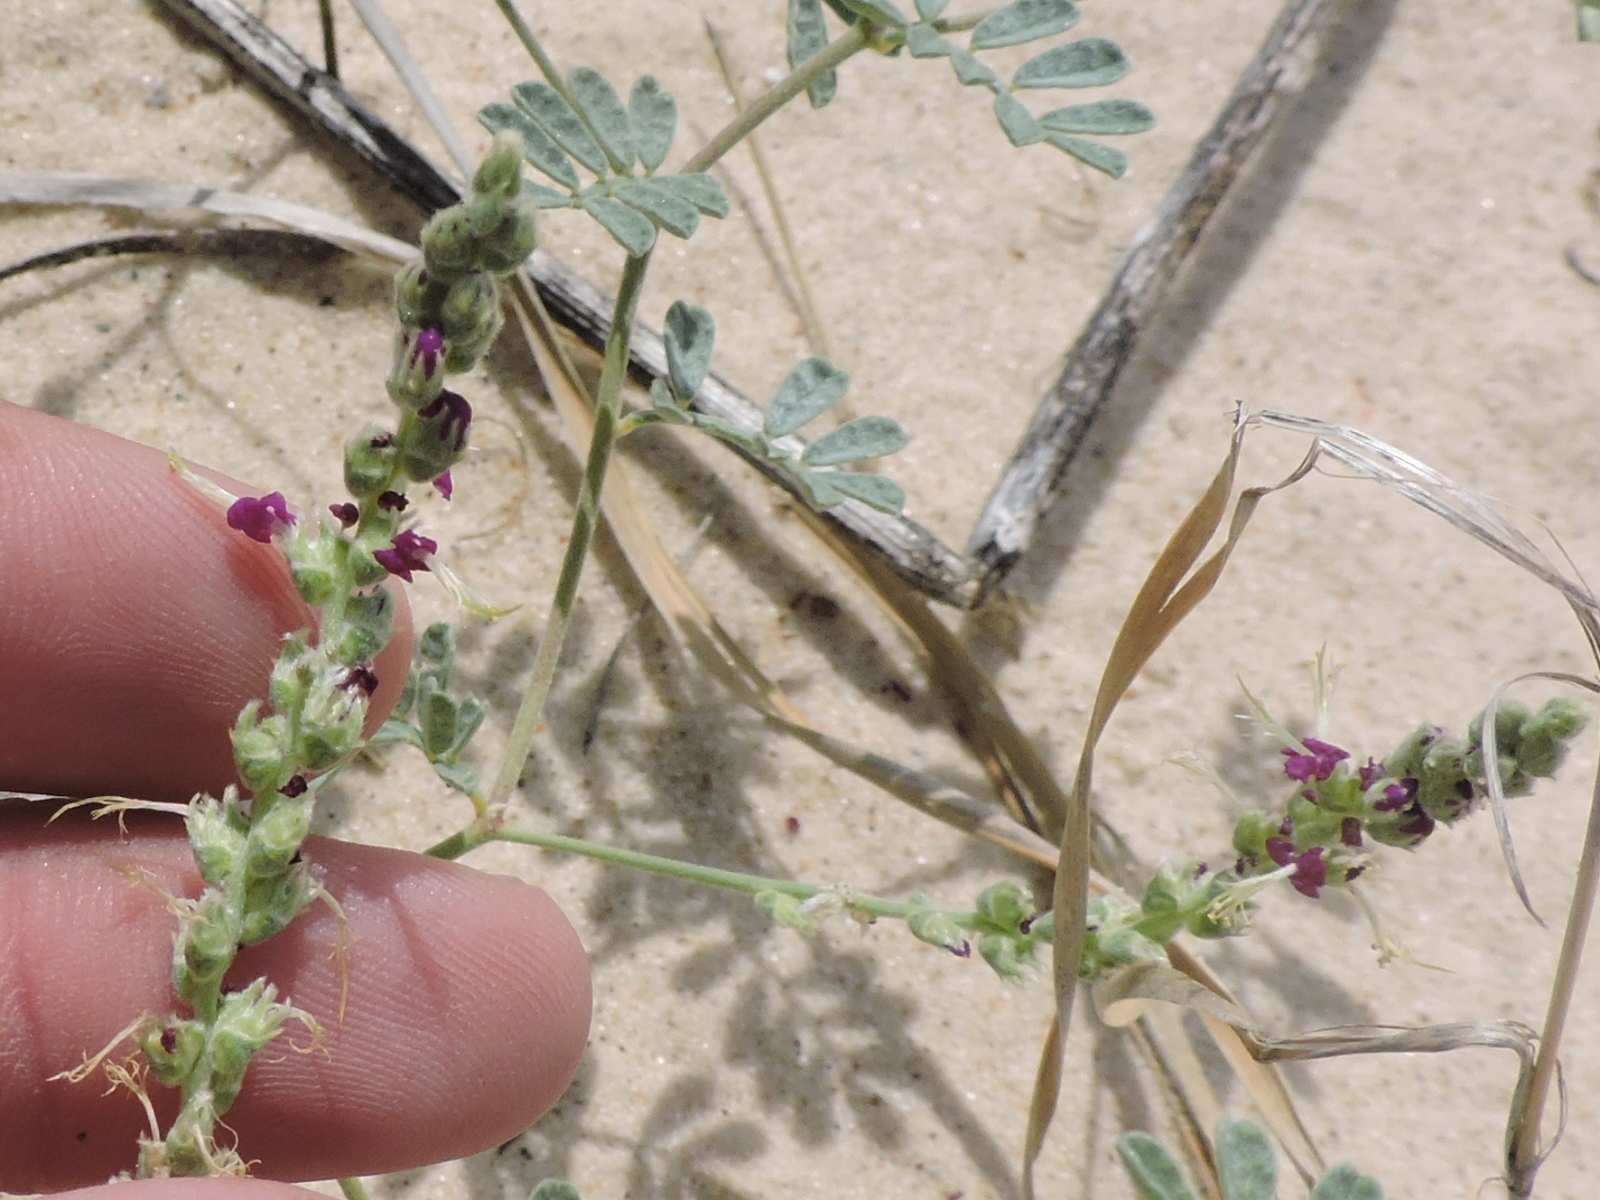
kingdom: Plantae
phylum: Tracheophyta
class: Magnoliopsida
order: Fabales
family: Fabaceae
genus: Dalea
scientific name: Dalea lanata
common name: Woolly dalea
